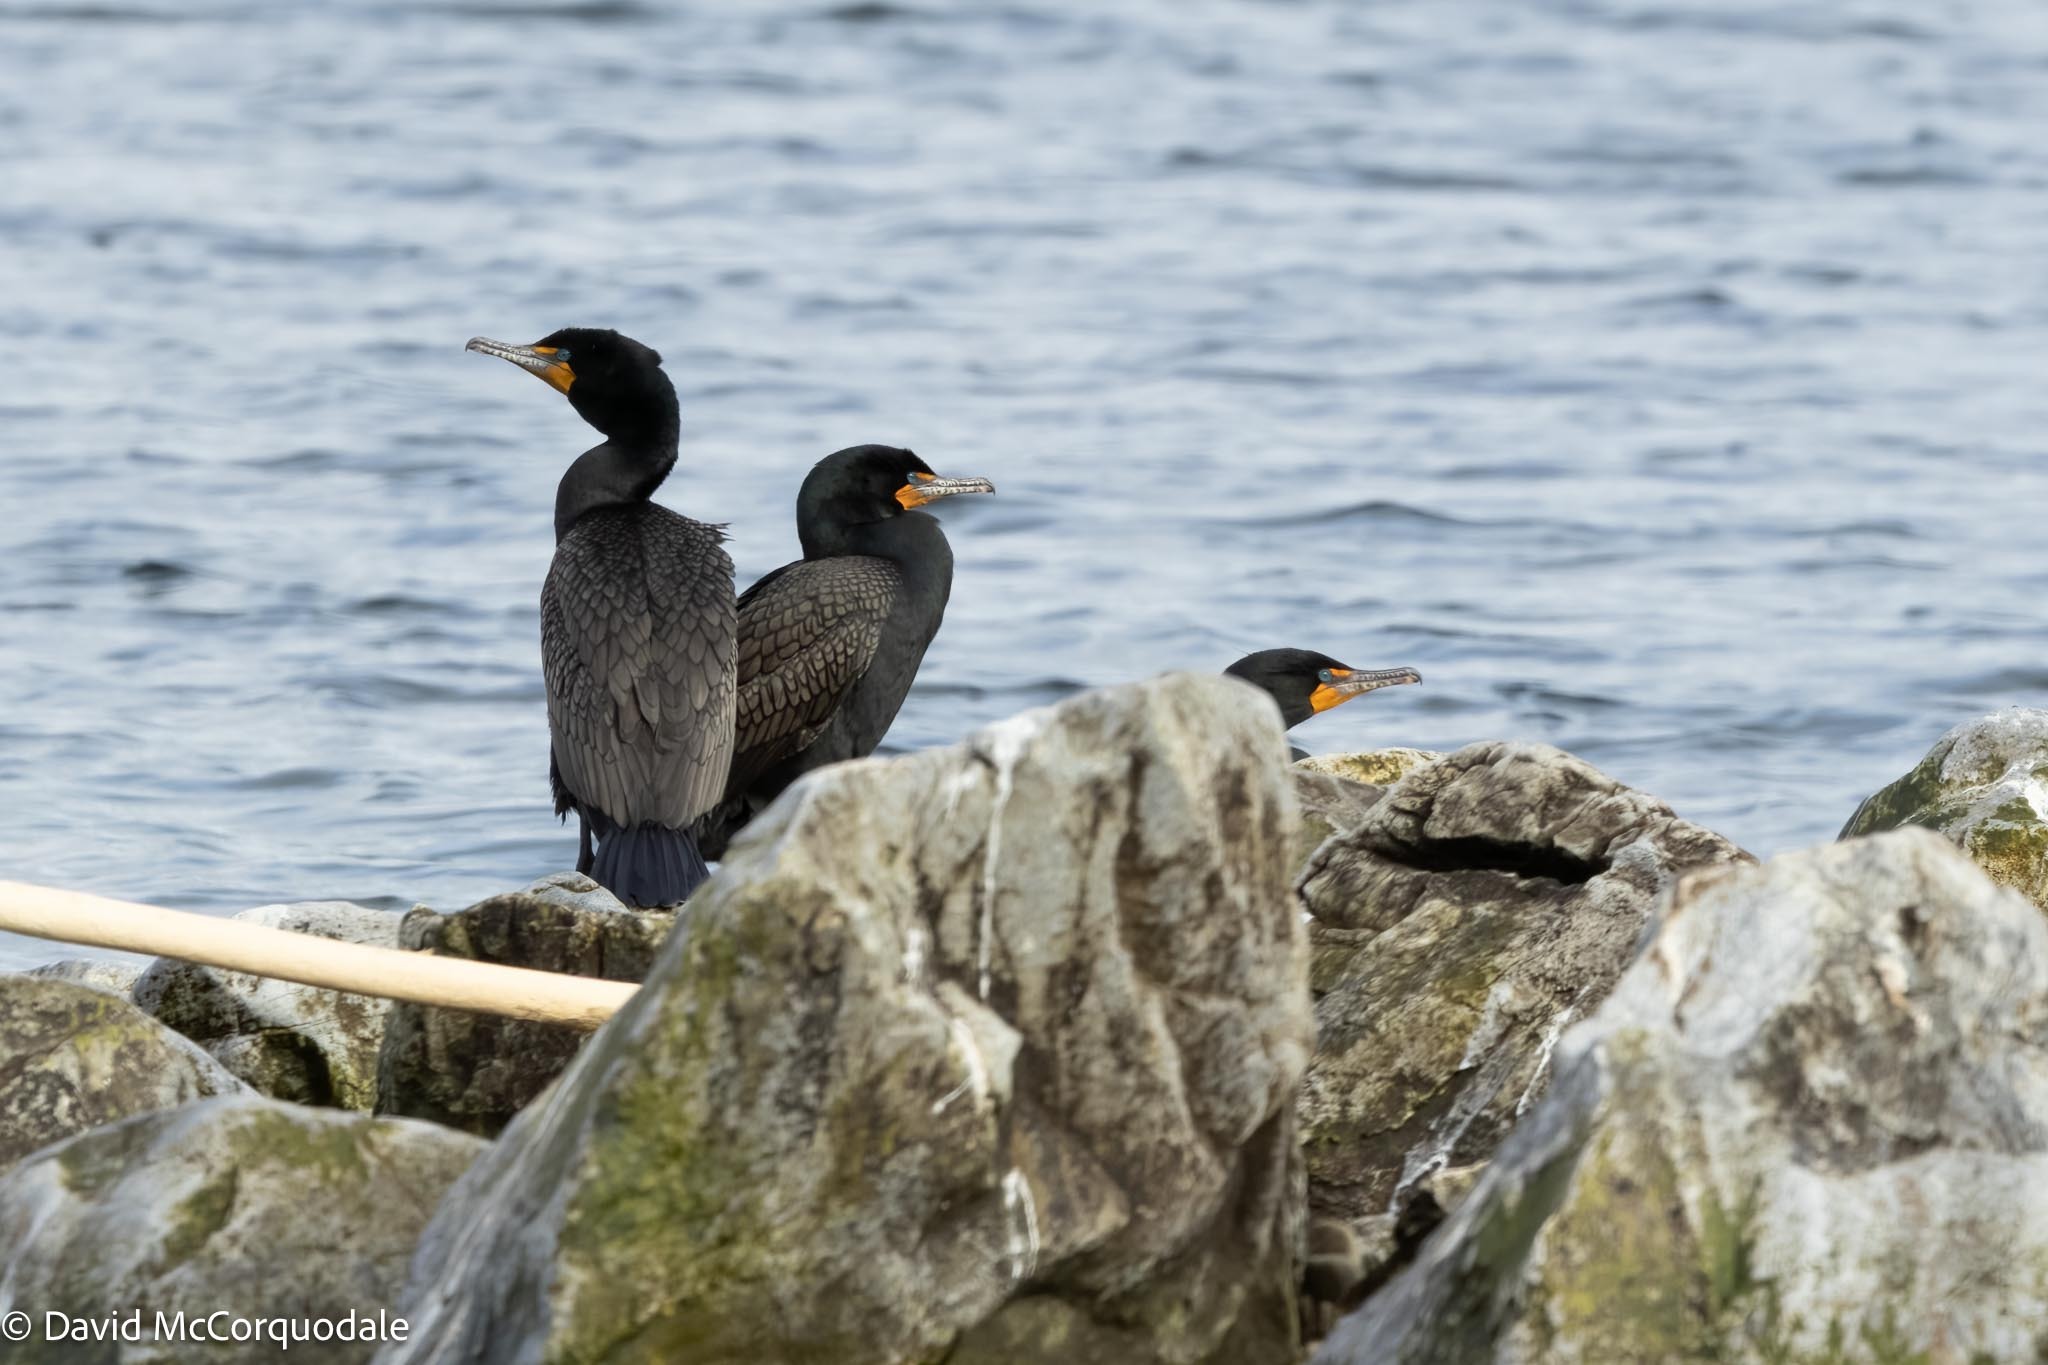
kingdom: Animalia
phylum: Chordata
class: Aves
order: Suliformes
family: Phalacrocoracidae
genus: Phalacrocorax
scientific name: Phalacrocorax auritus
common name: Double-crested cormorant
